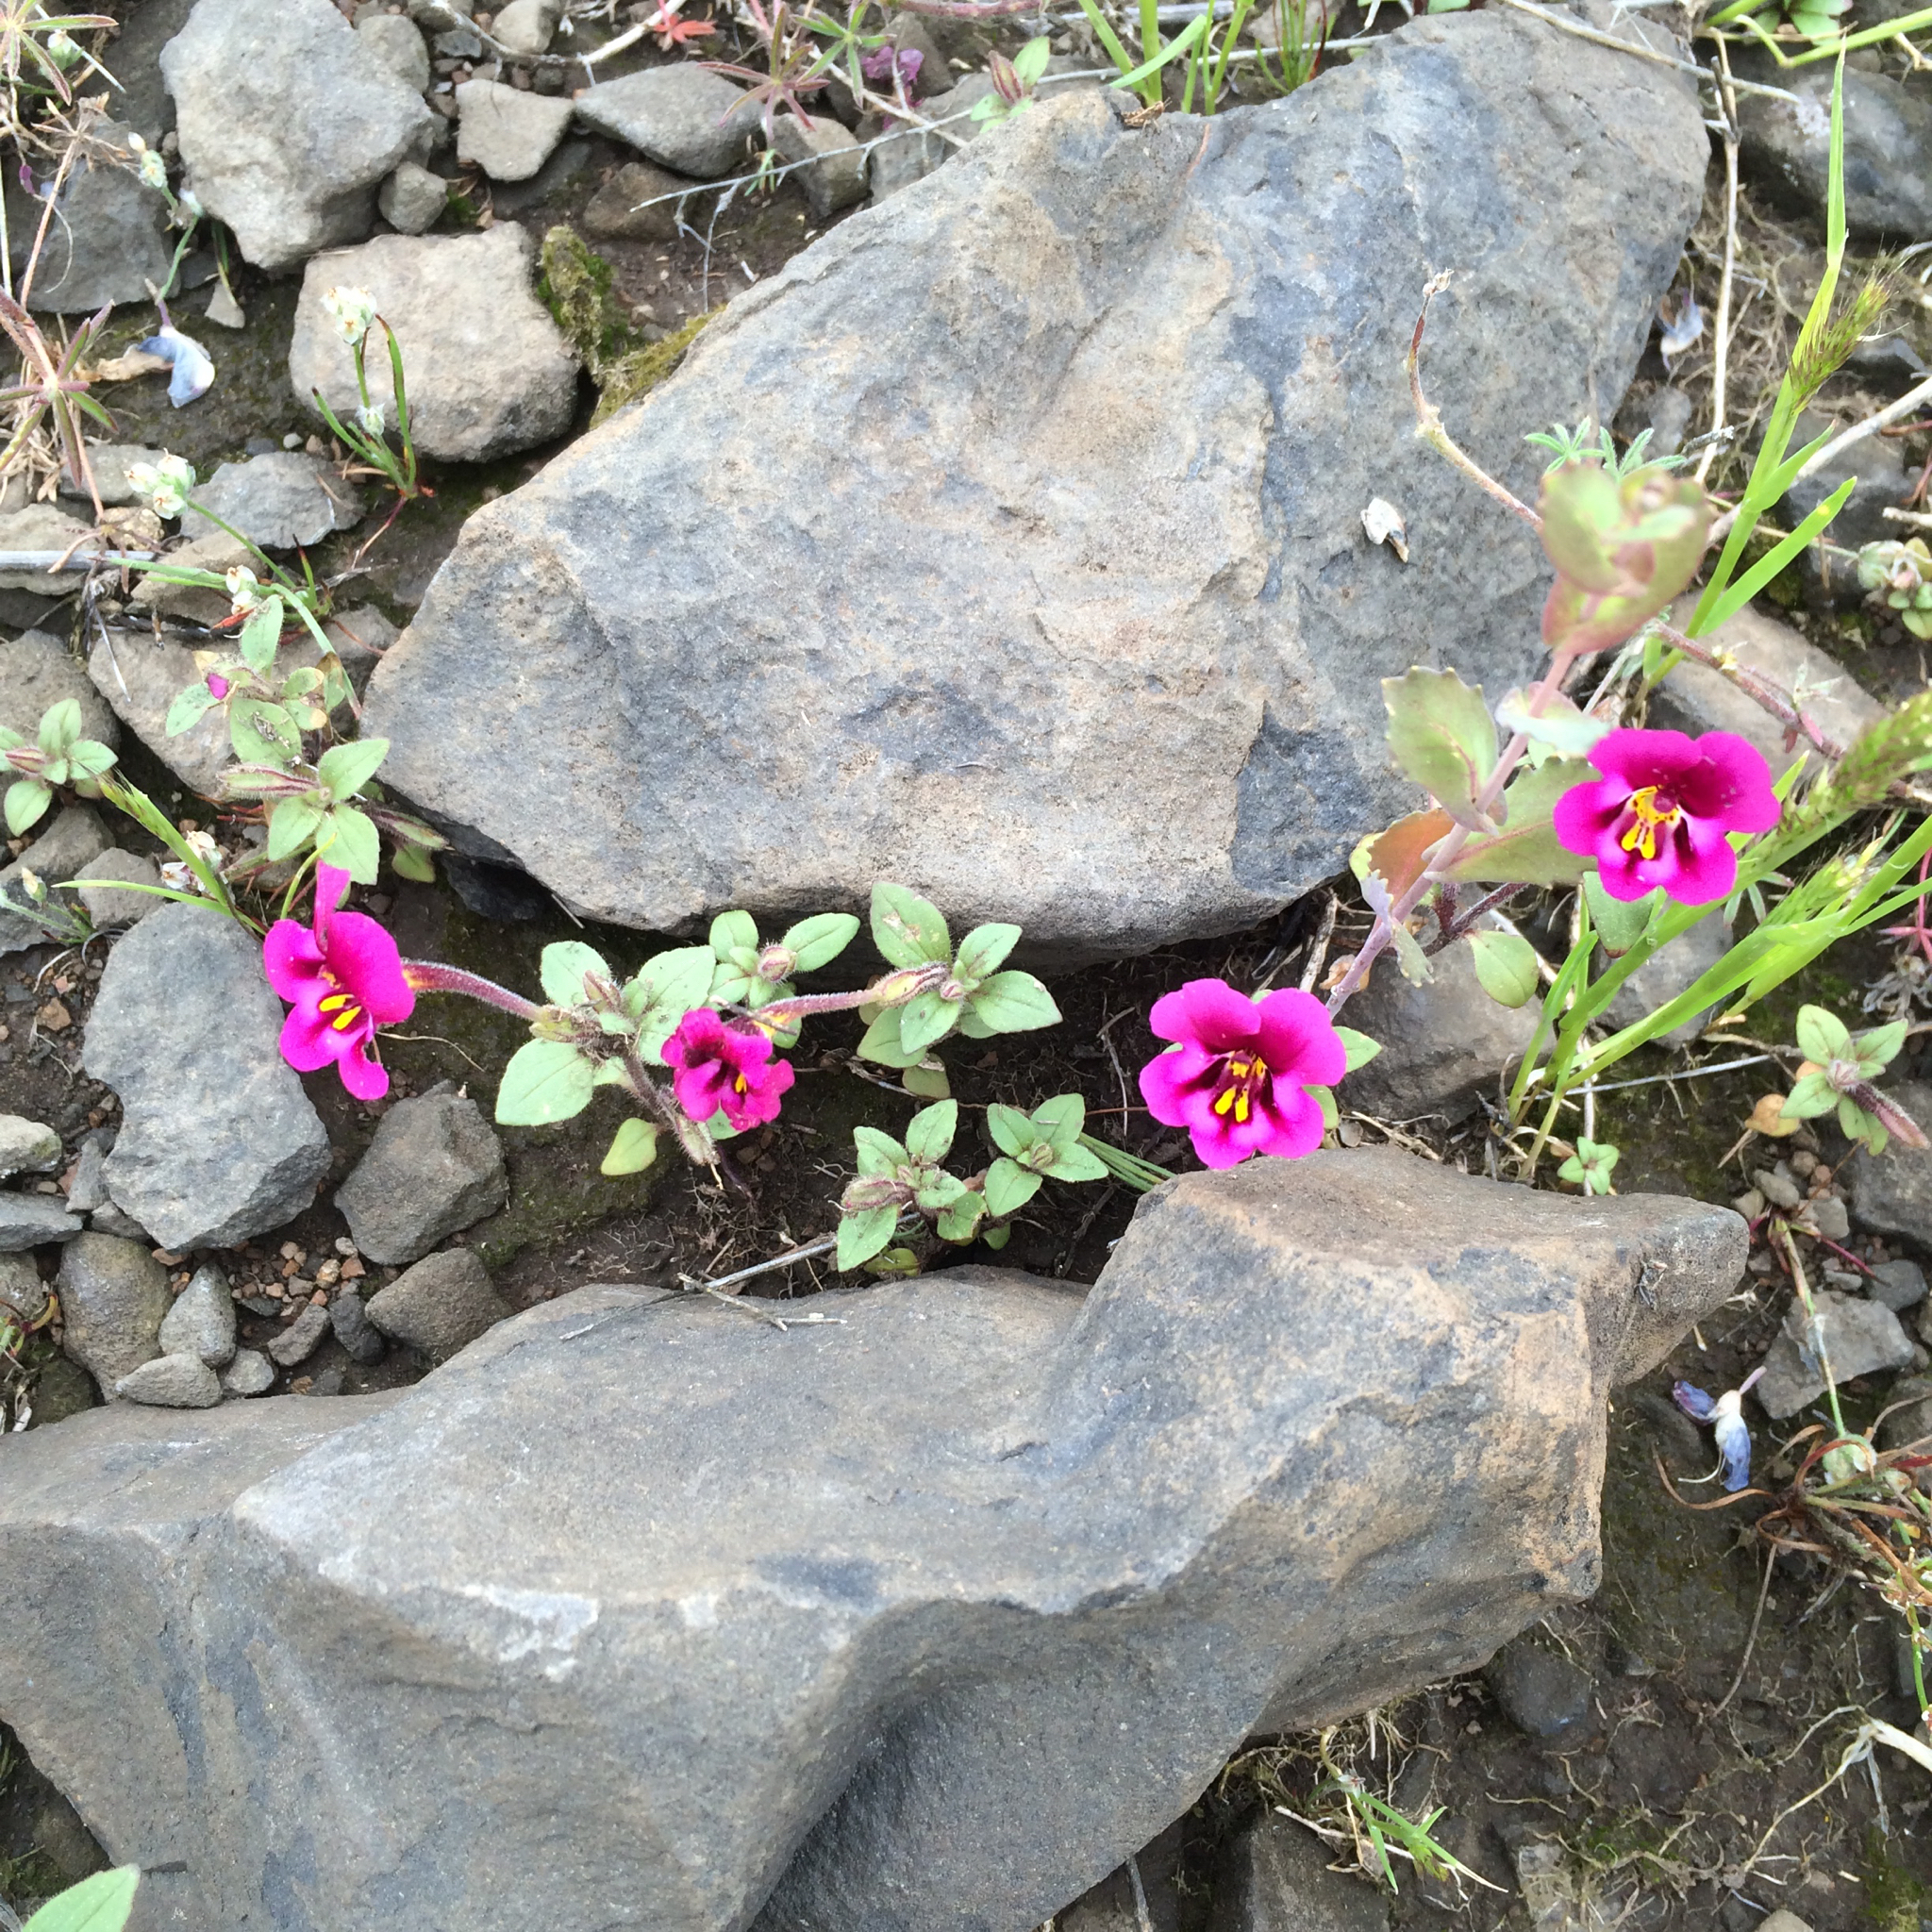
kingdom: Plantae
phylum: Tracheophyta
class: Magnoliopsida
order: Lamiales
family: Phrymaceae
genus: Diplacus
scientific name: Diplacus kelloggii
